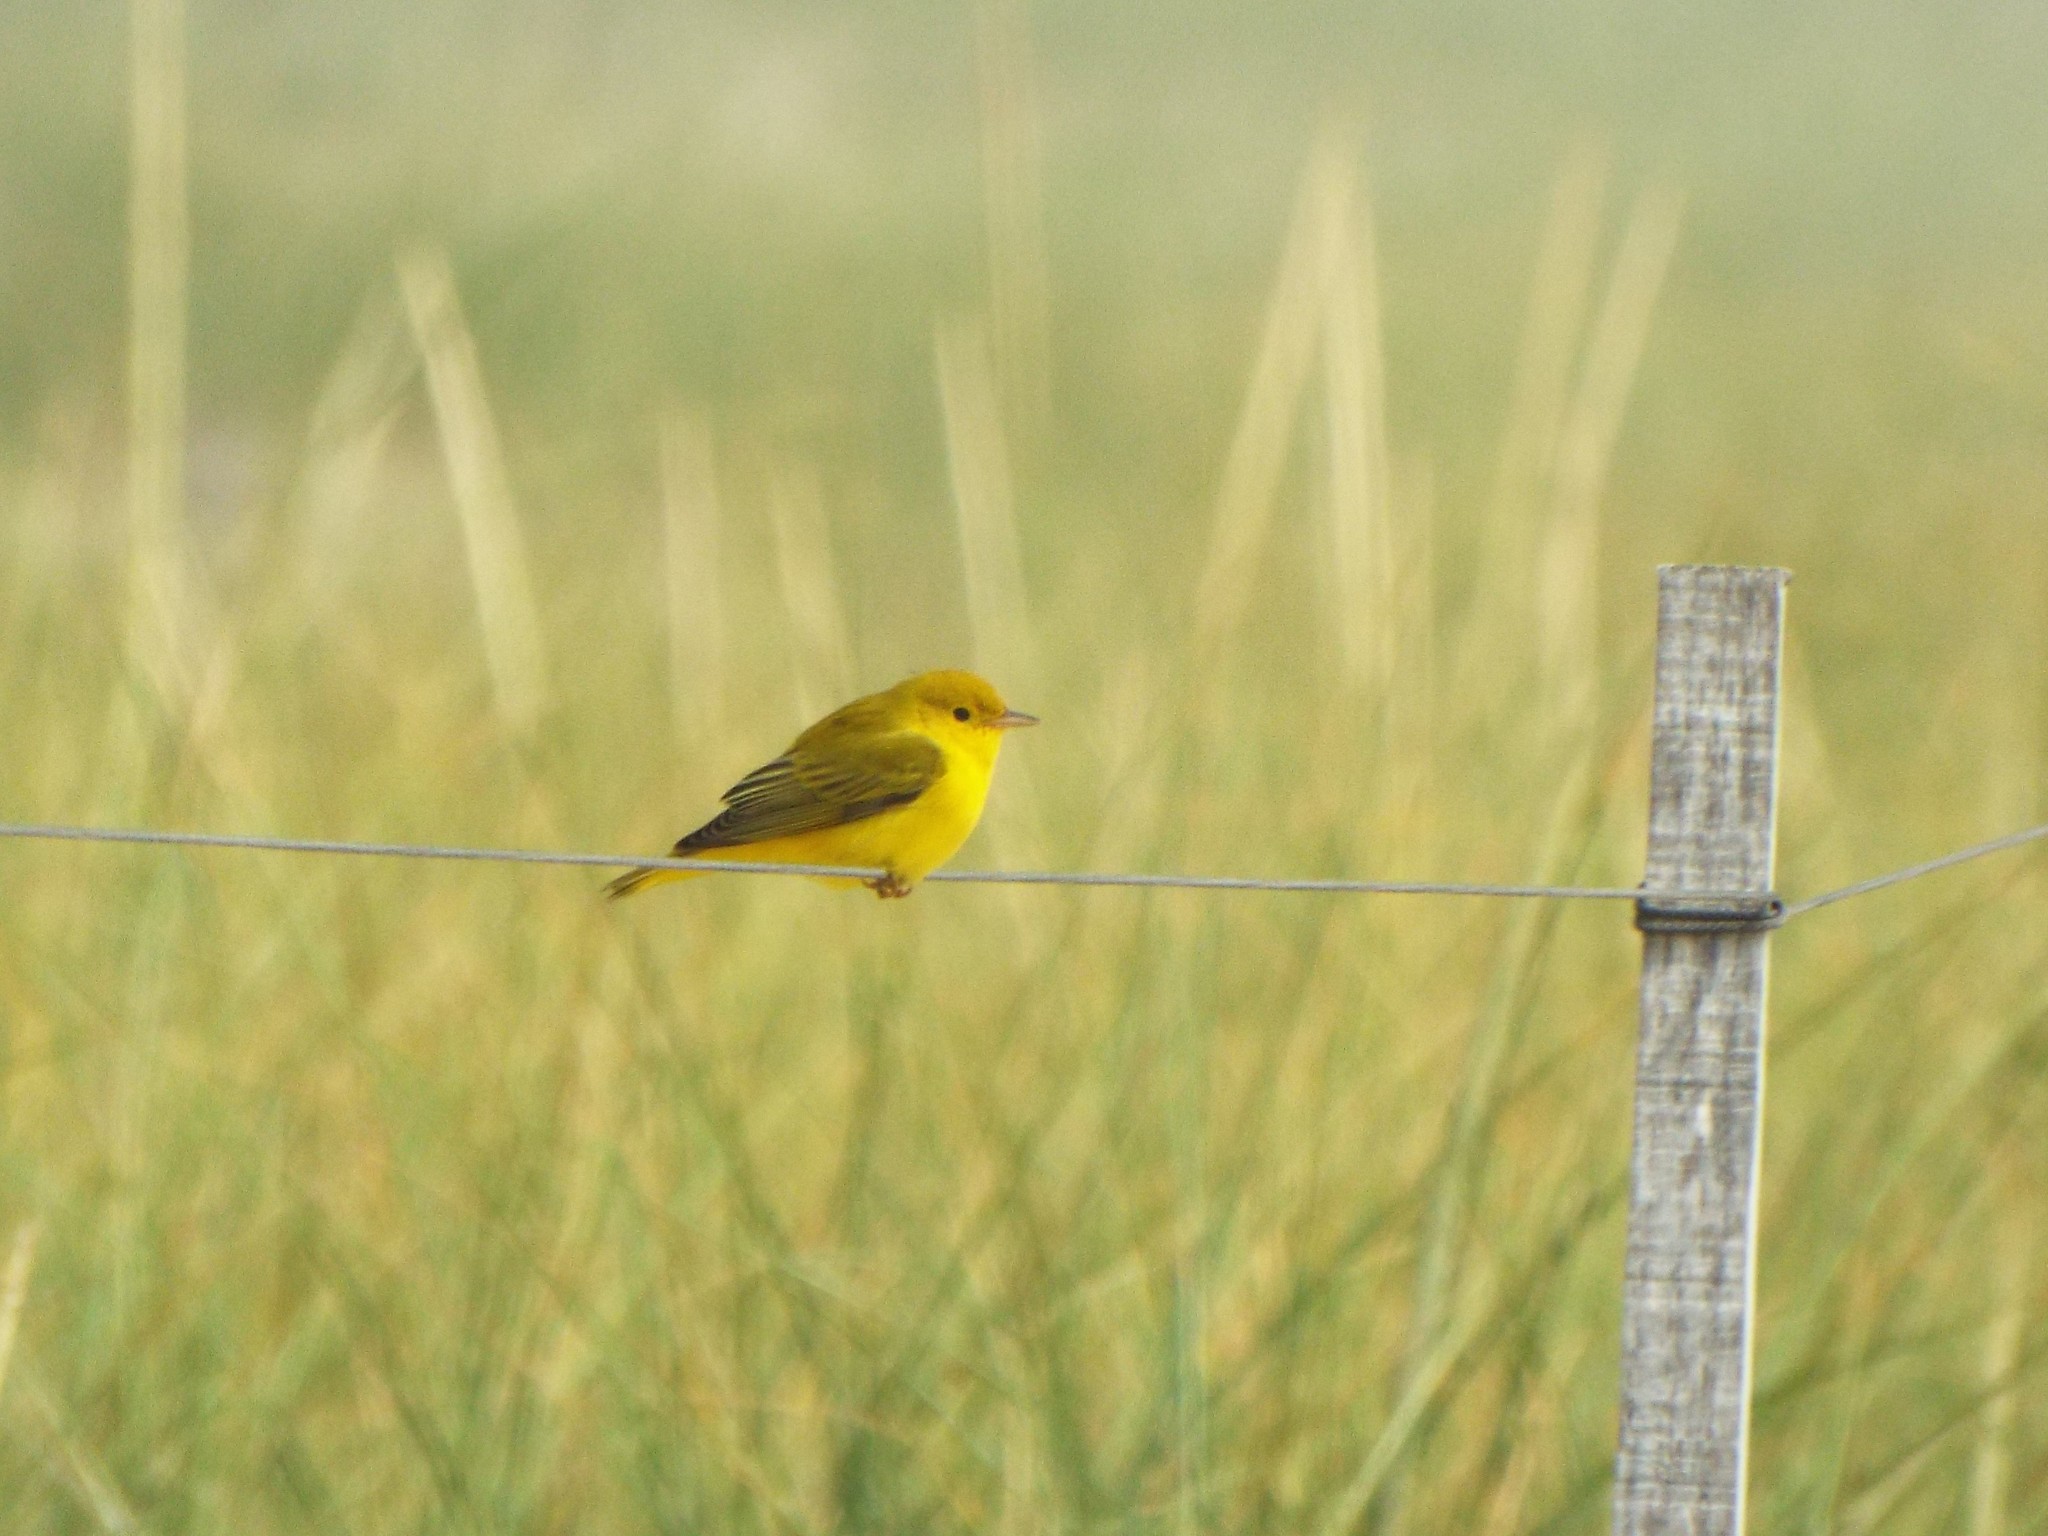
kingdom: Animalia
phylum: Chordata
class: Aves
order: Passeriformes
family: Parulidae
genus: Setophaga
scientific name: Setophaga petechia
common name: Yellow warbler
